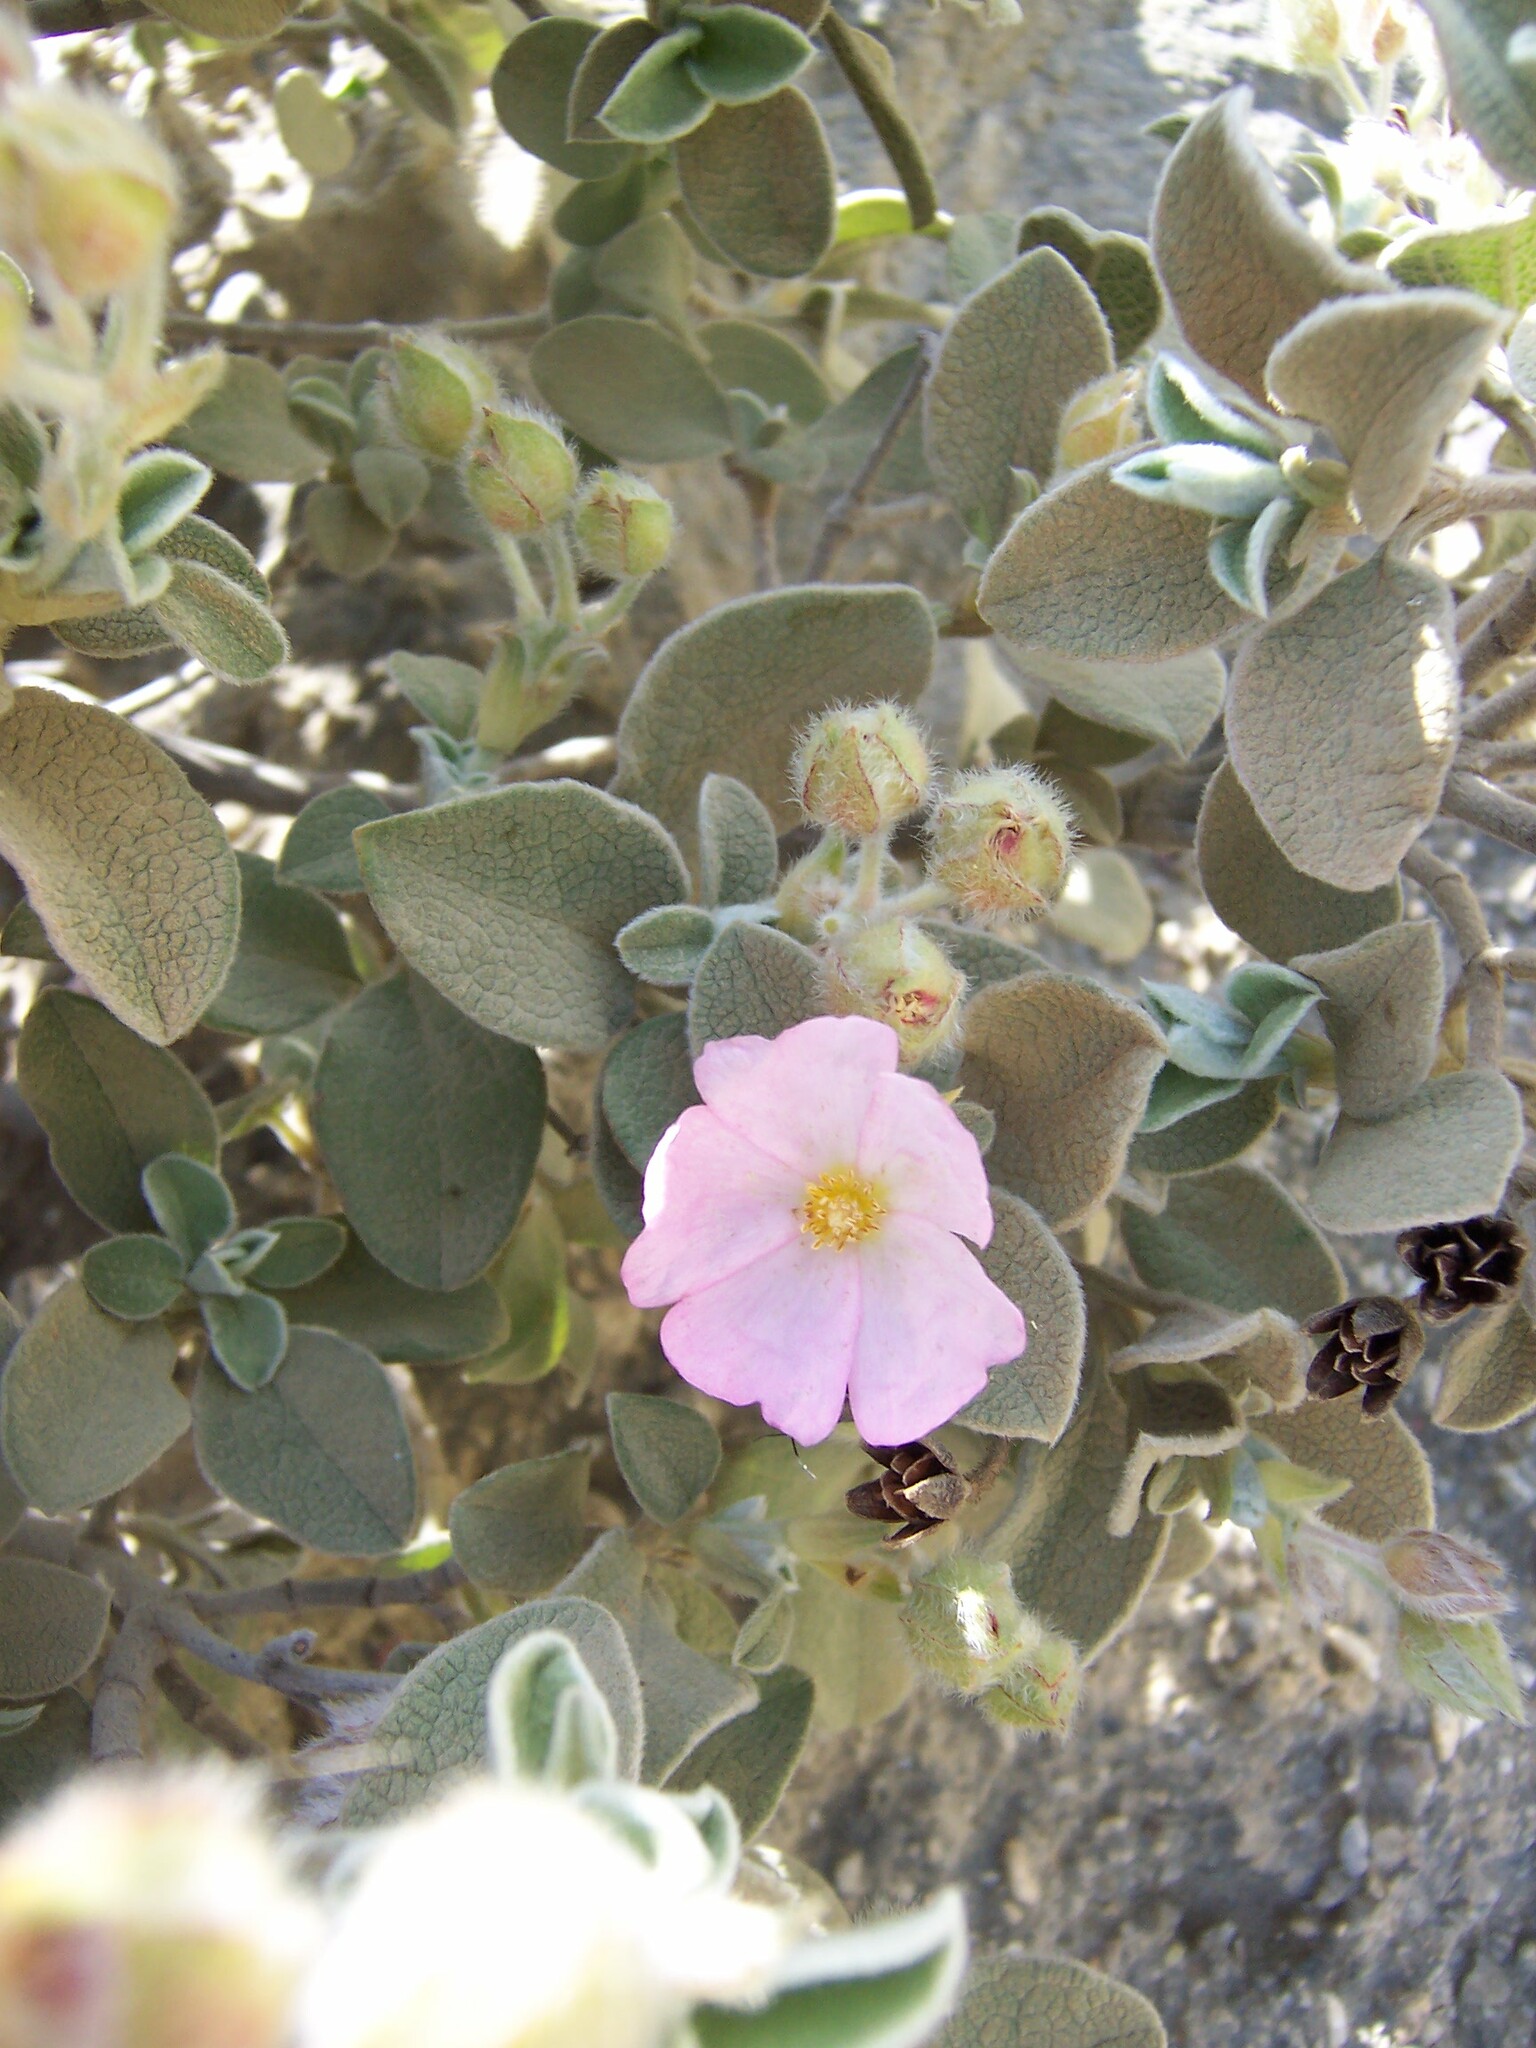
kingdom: Plantae
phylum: Tracheophyta
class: Magnoliopsida
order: Malvales
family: Cistaceae
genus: Cistus
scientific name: Cistus parviflorus
